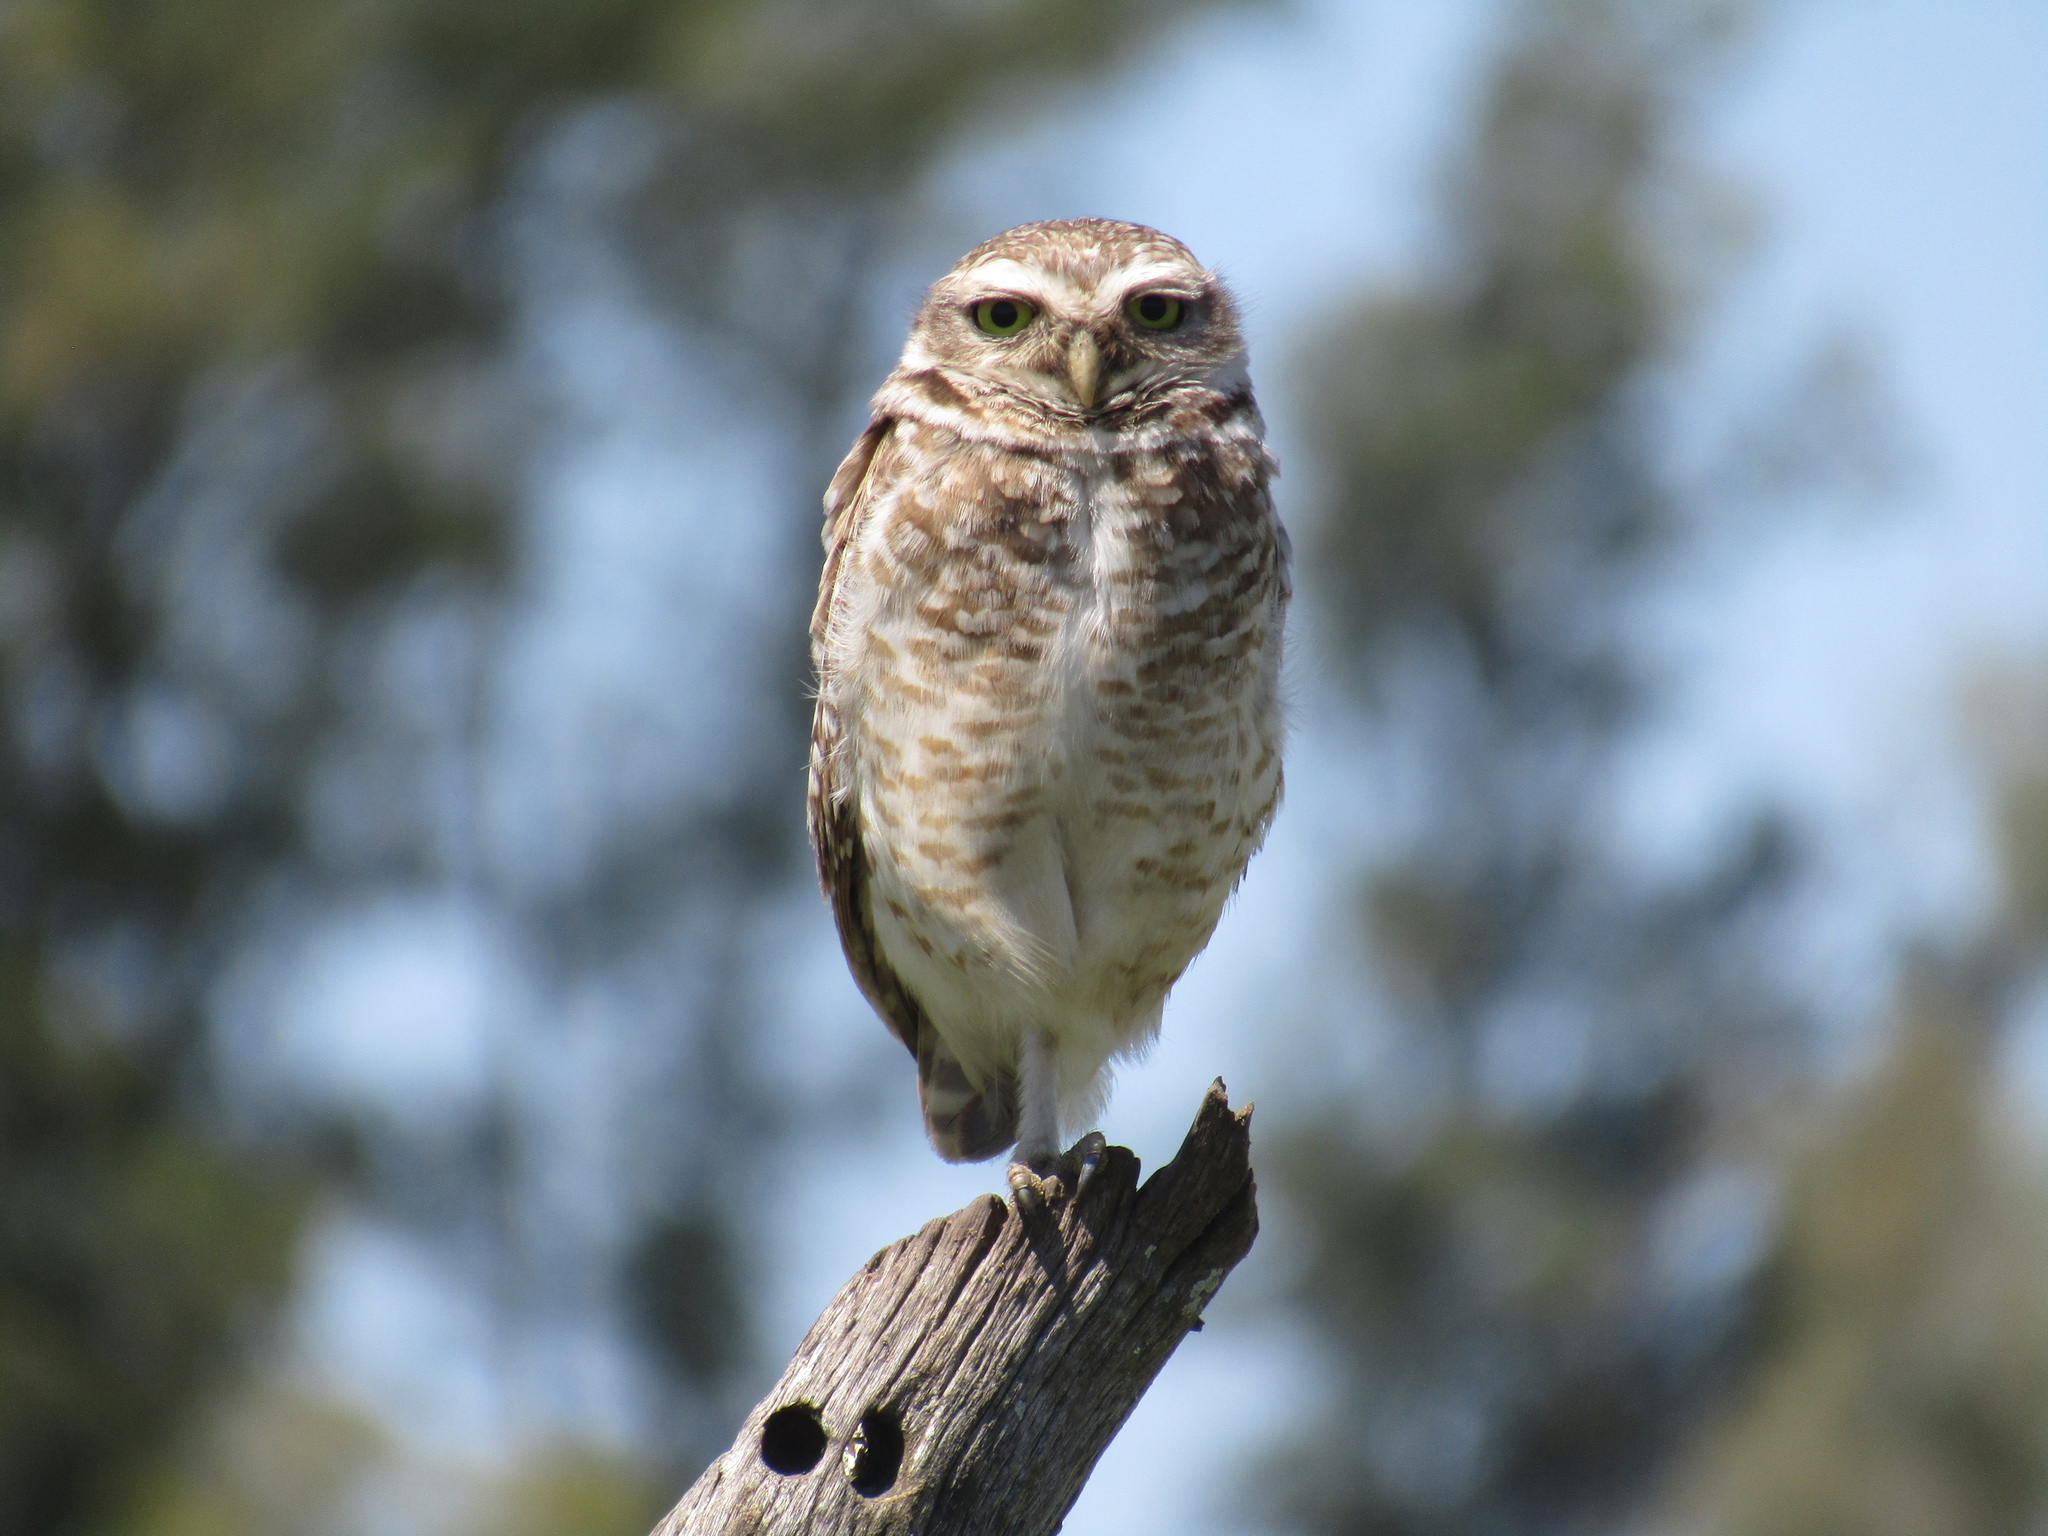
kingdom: Animalia
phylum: Chordata
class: Aves
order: Strigiformes
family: Strigidae
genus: Athene
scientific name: Athene cunicularia
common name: Burrowing owl
